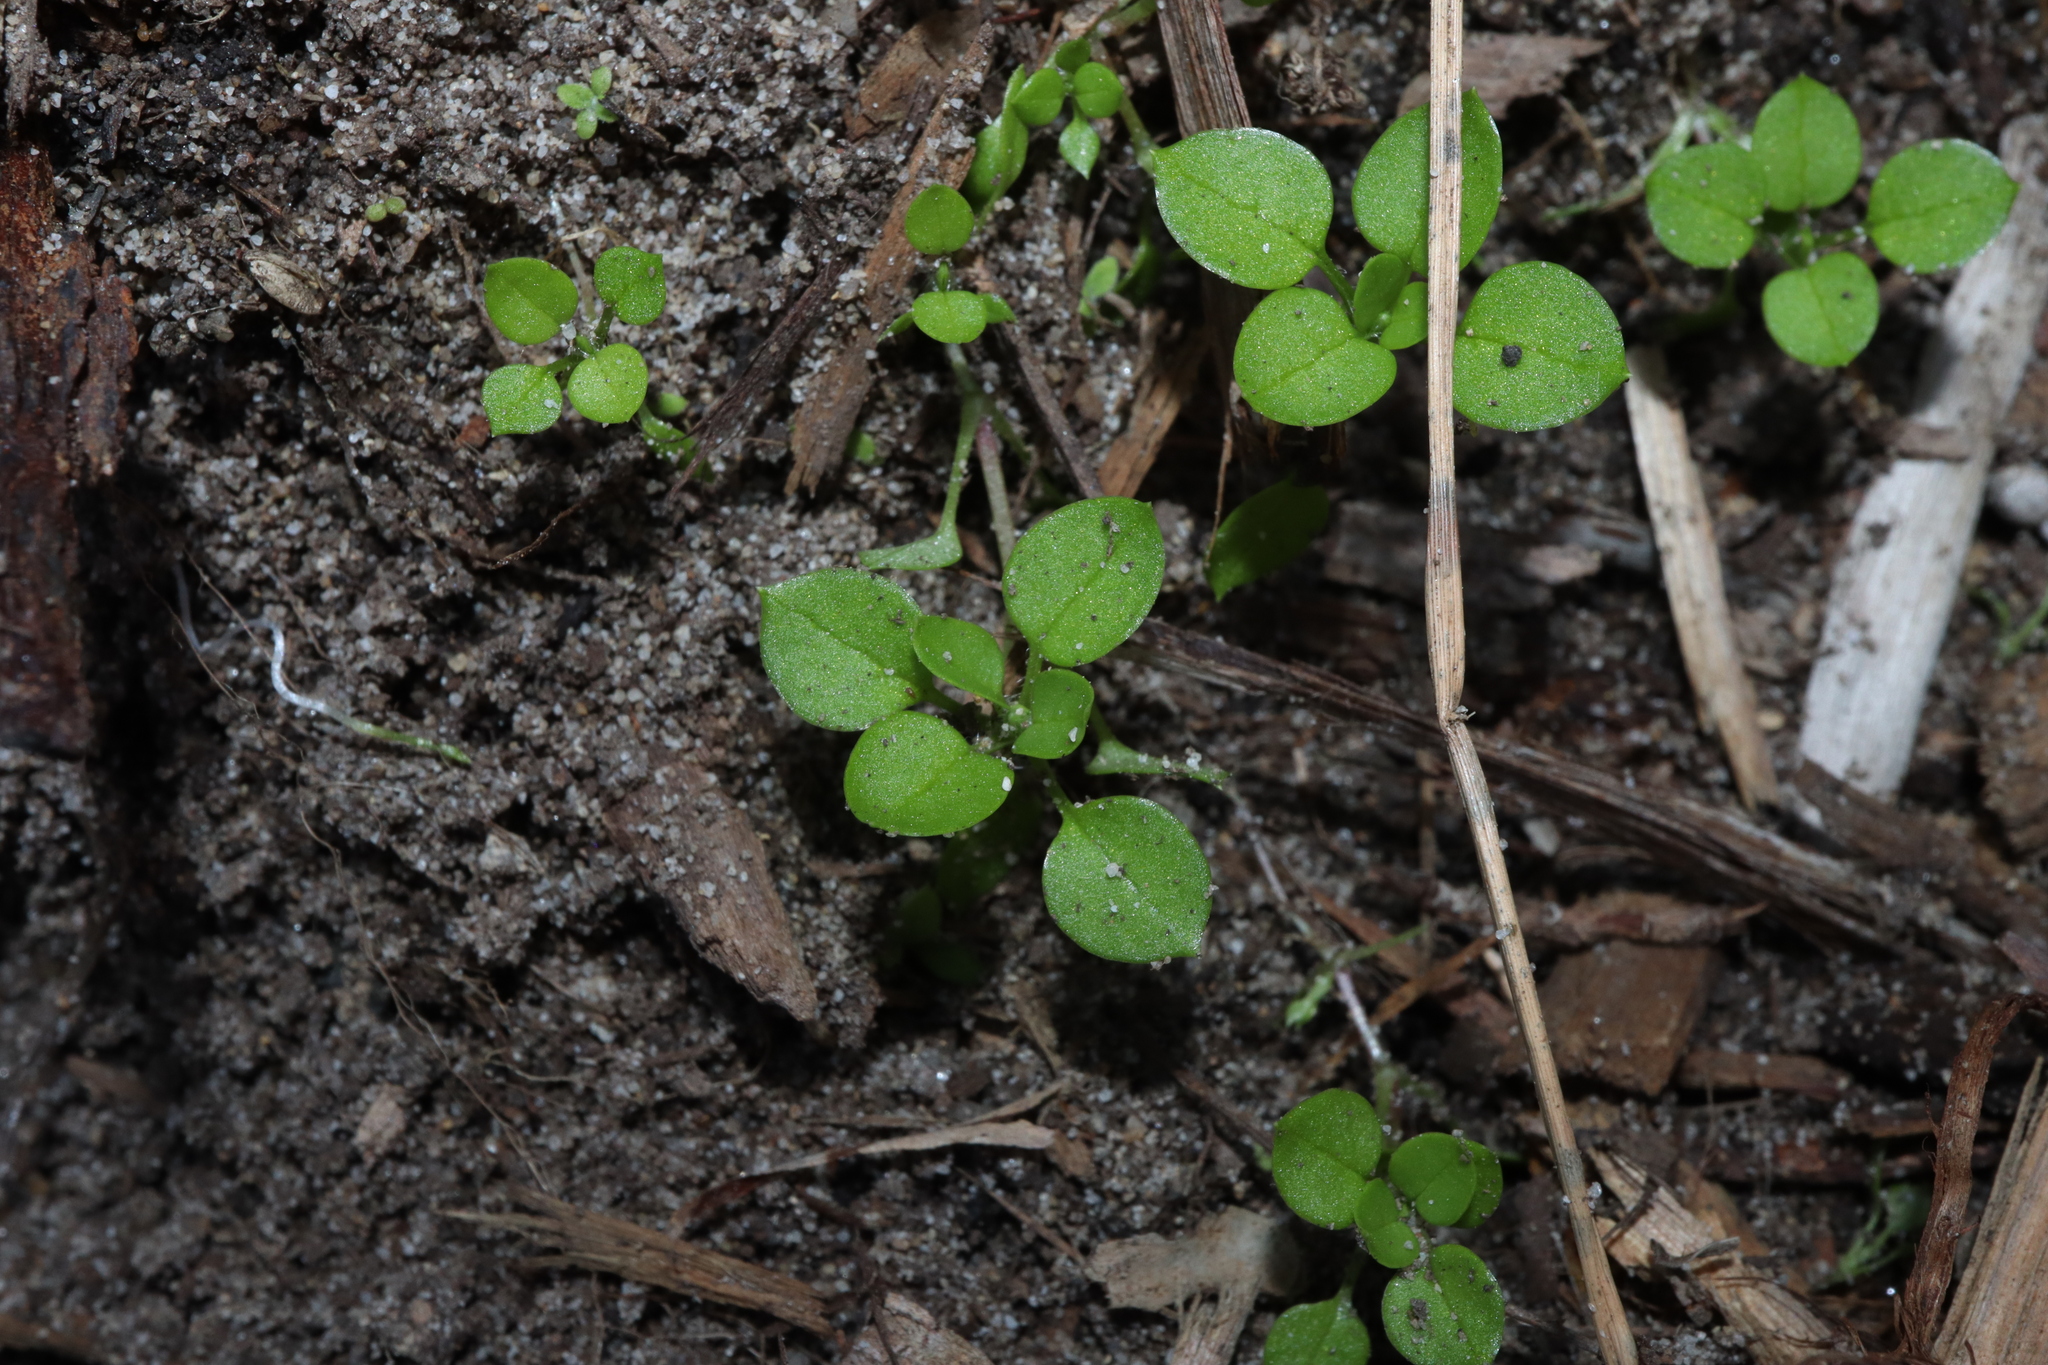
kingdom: Plantae
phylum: Tracheophyta
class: Magnoliopsida
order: Caryophyllales
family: Caryophyllaceae
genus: Stellaria
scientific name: Stellaria media
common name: Common chickweed
